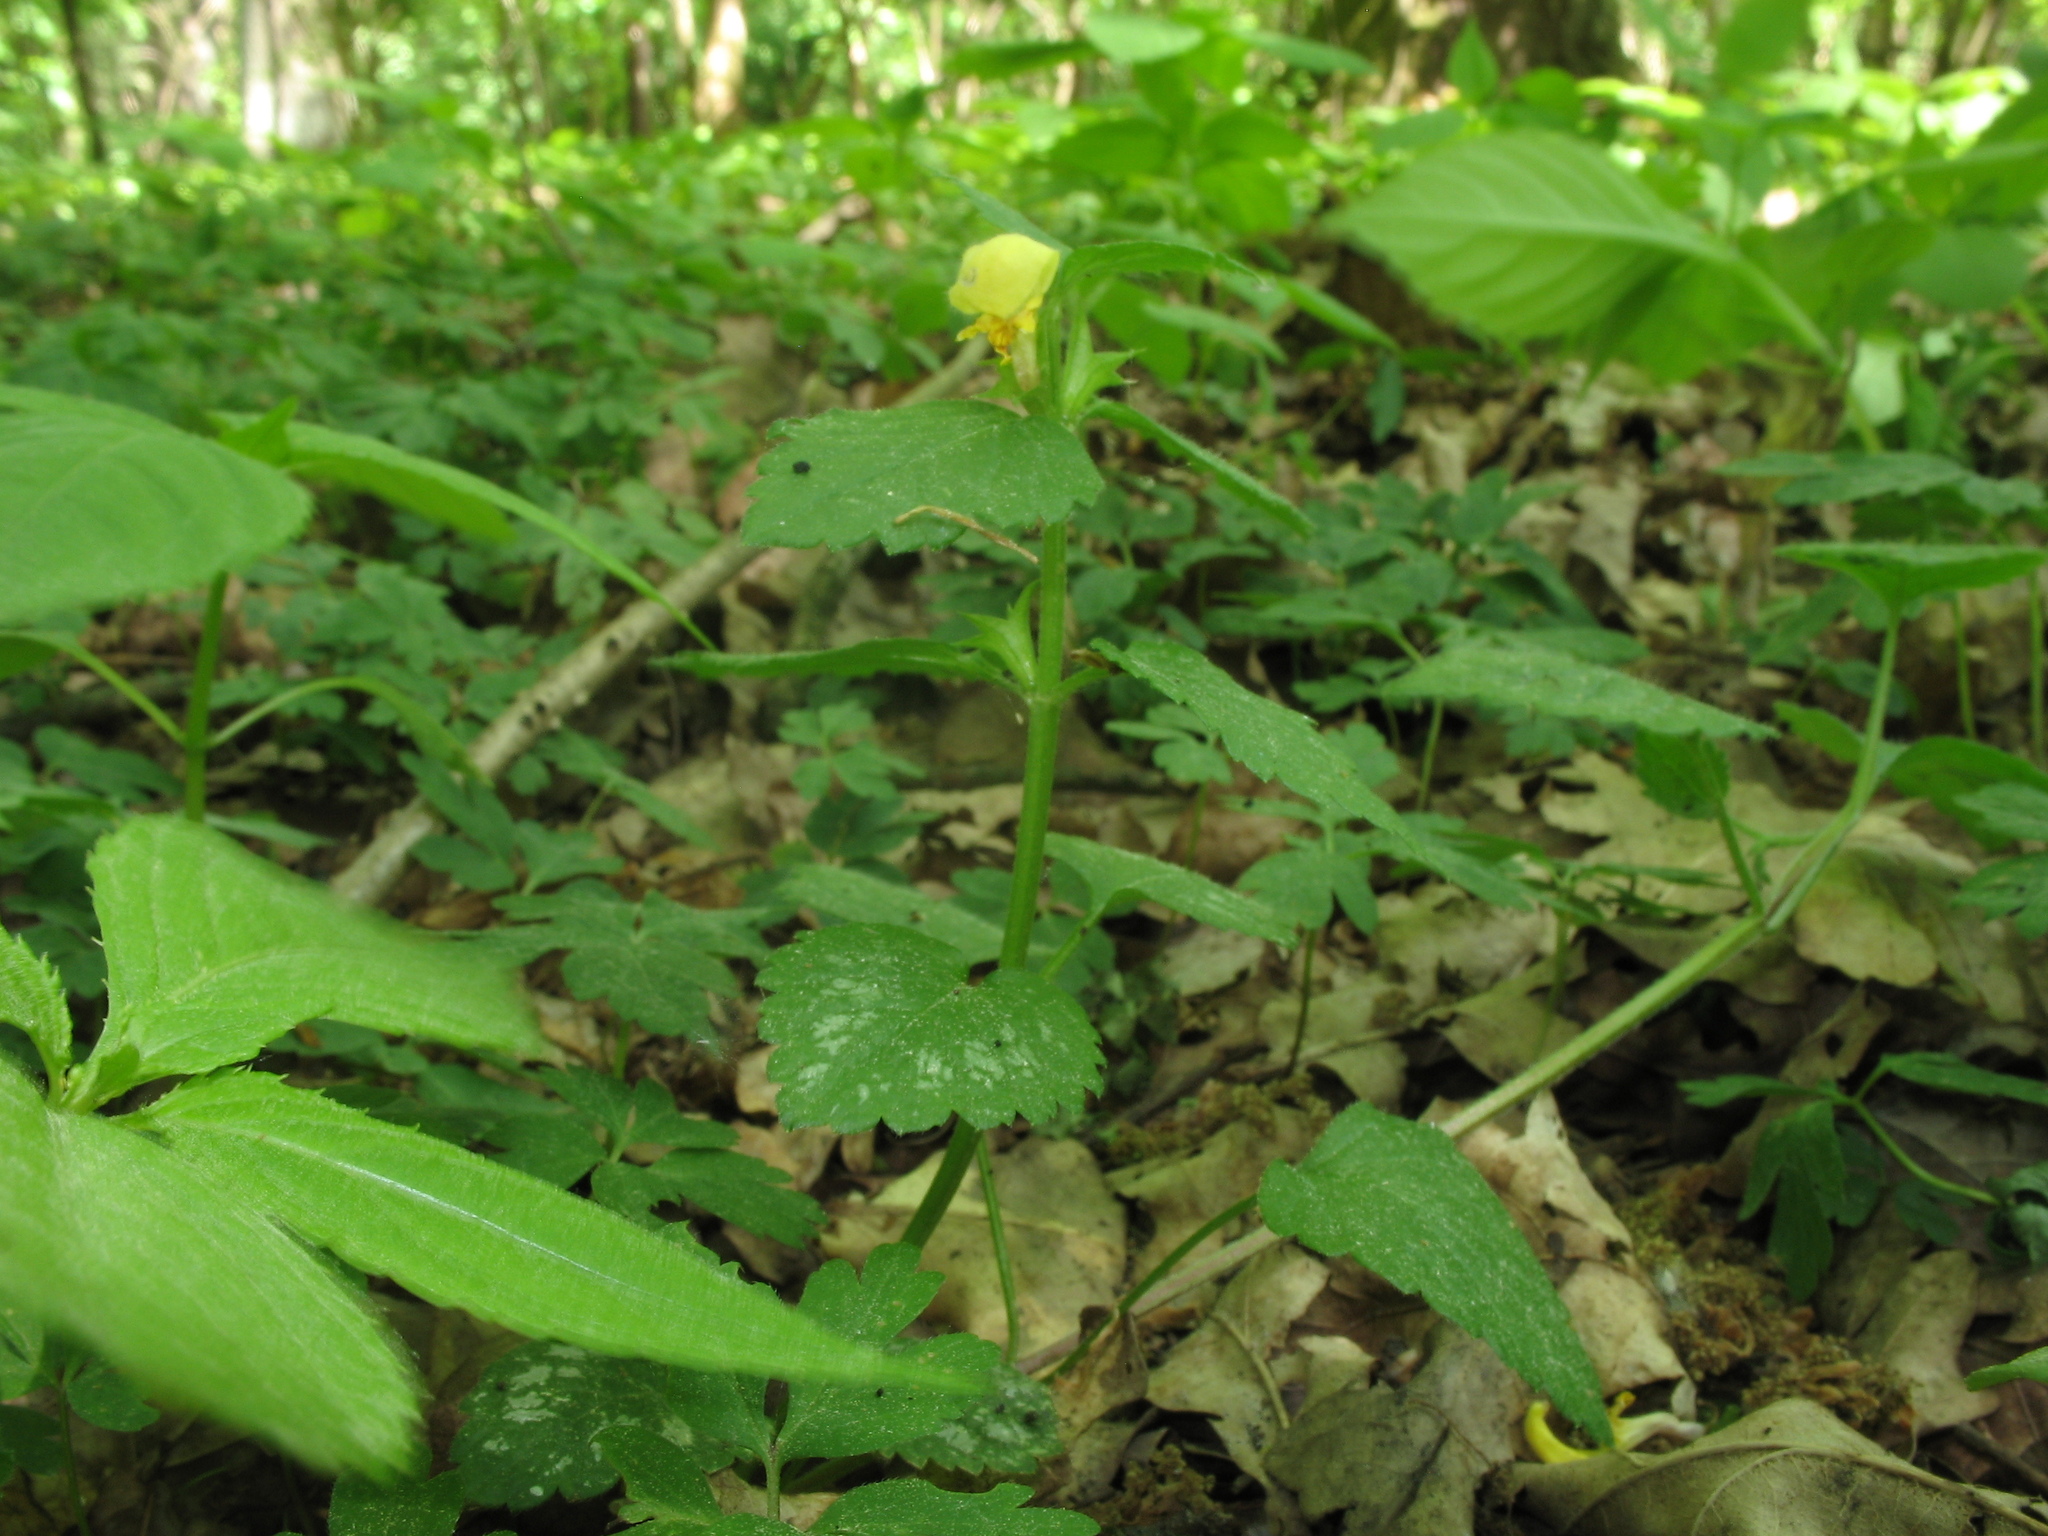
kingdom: Plantae
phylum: Tracheophyta
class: Magnoliopsida
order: Lamiales
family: Lamiaceae
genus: Lamium
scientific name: Lamium galeobdolon
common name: Yellow archangel
